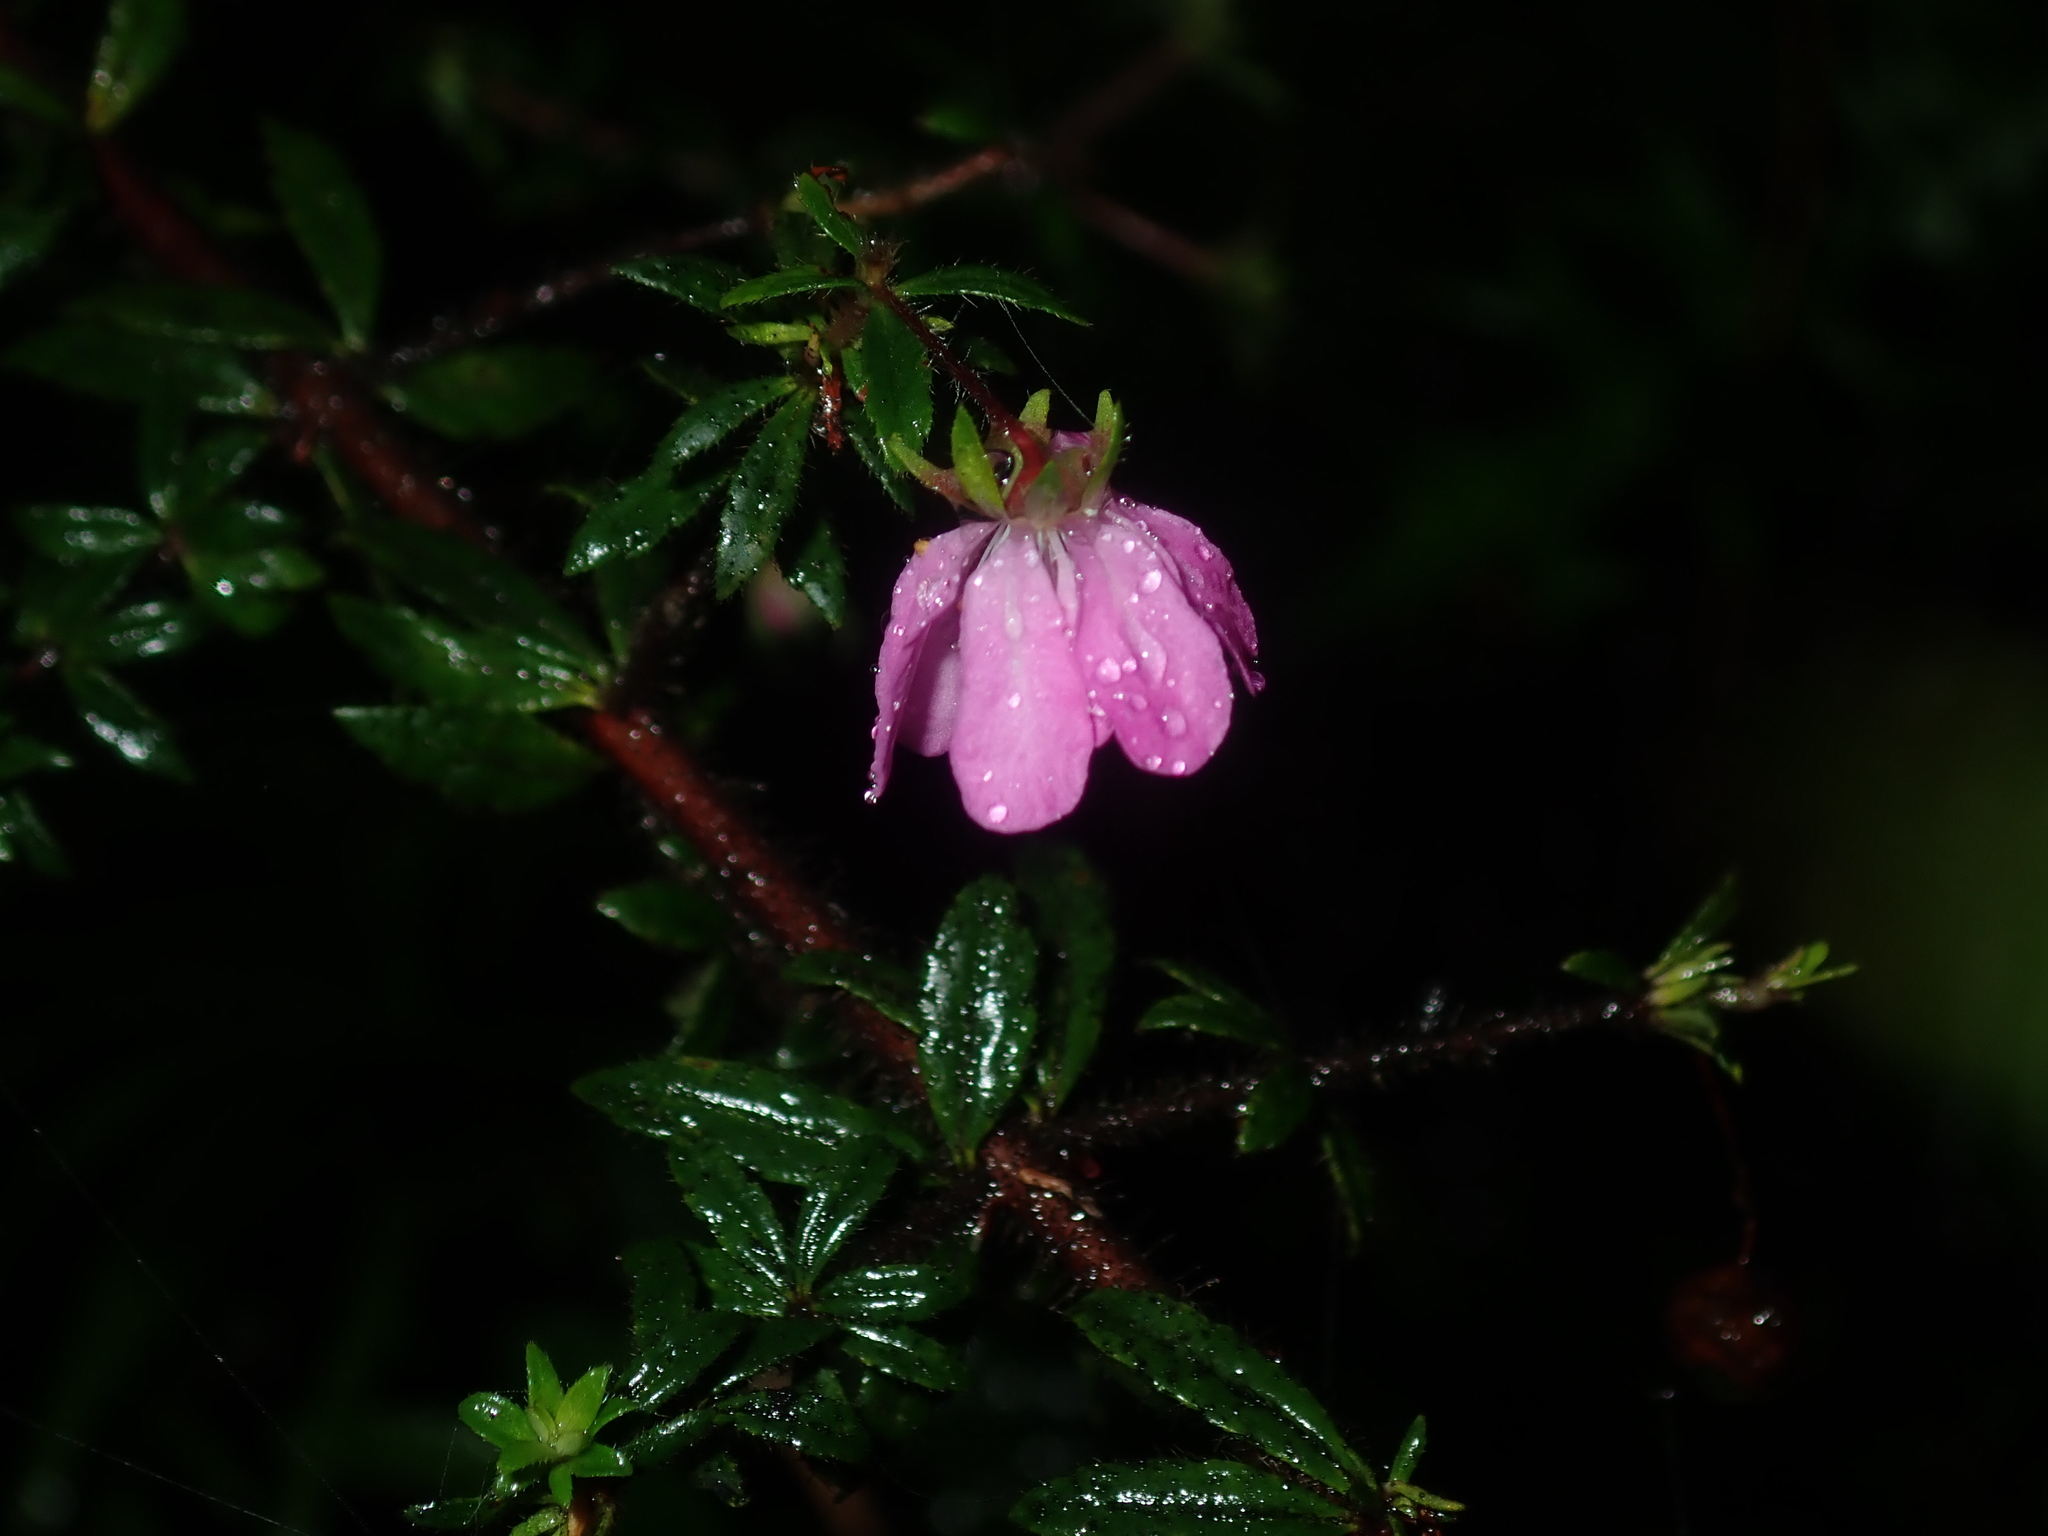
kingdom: Plantae
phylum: Tracheophyta
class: Magnoliopsida
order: Oxalidales
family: Cunoniaceae
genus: Bauera
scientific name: Bauera rubioides
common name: River-rose
